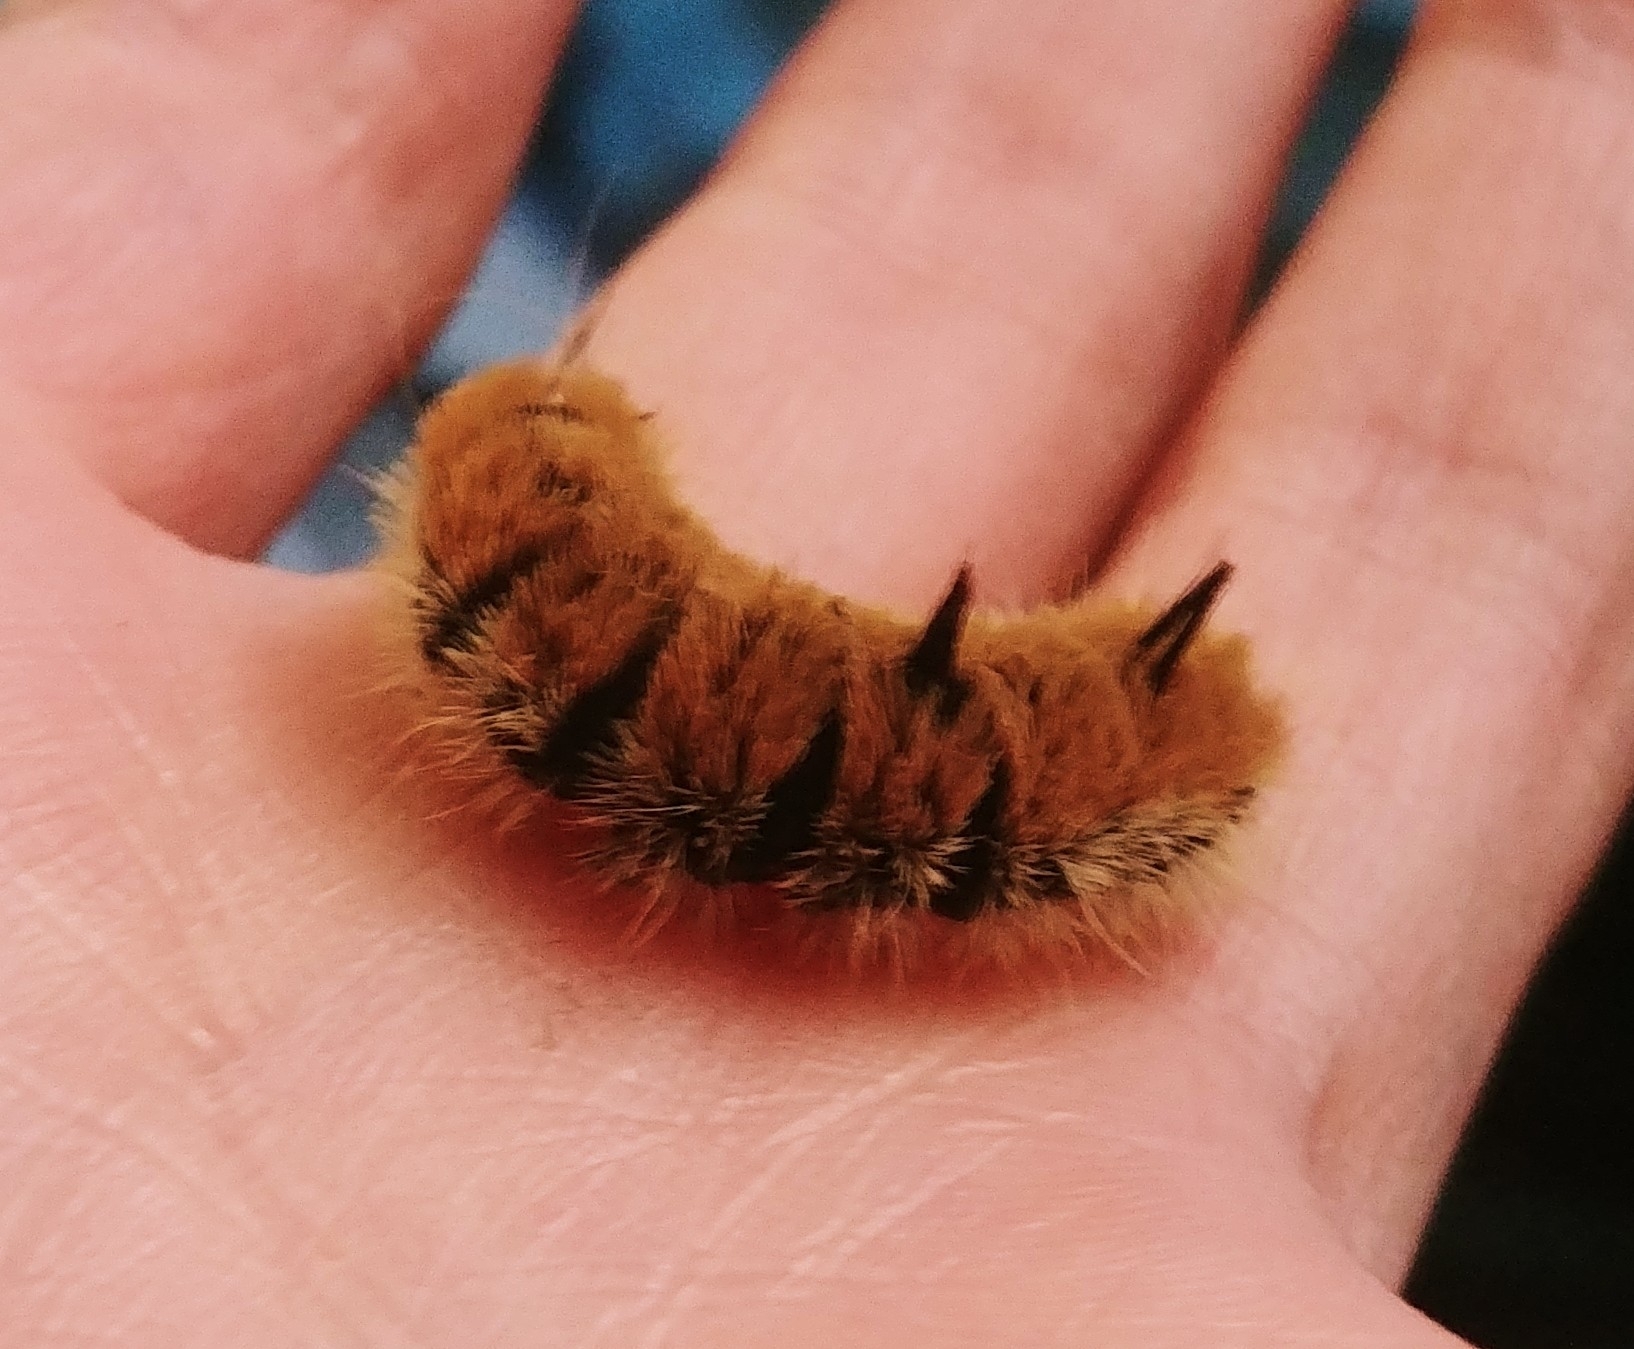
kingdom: Animalia
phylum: Arthropoda
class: Insecta
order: Lepidoptera
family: Noctuidae
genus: Acronicta
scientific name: Acronicta insita
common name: Large gray dagger
